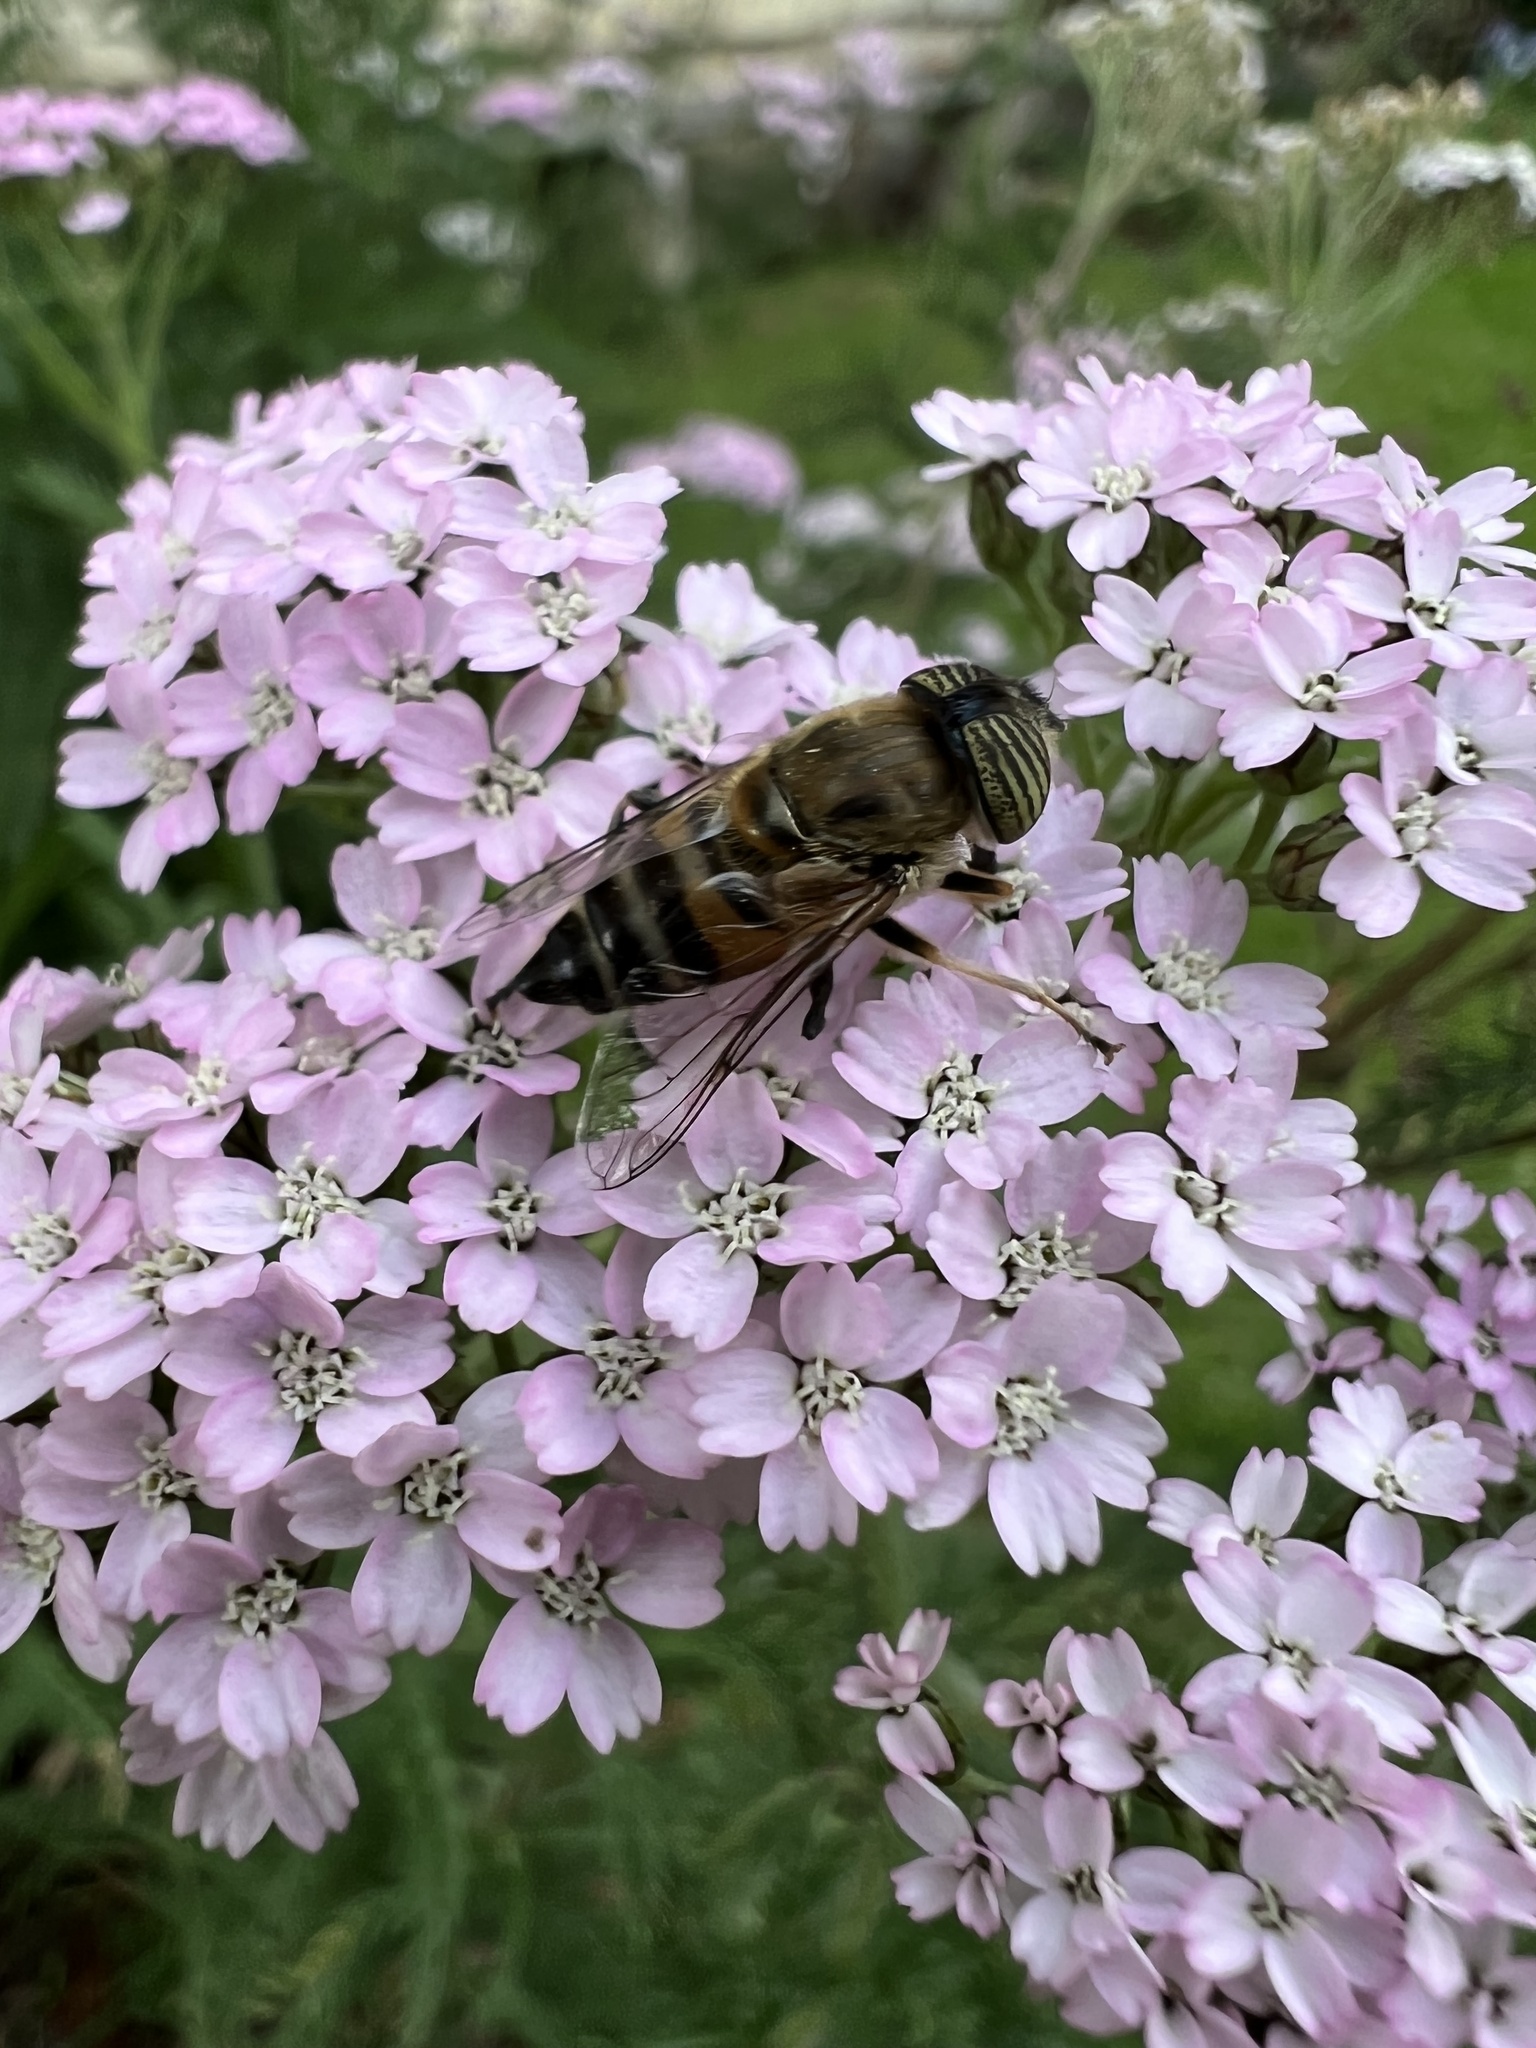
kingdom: Animalia
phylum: Arthropoda
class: Insecta
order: Diptera
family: Syrphidae
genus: Eristalinus
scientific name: Eristalinus taeniops
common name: Syrphid fly
